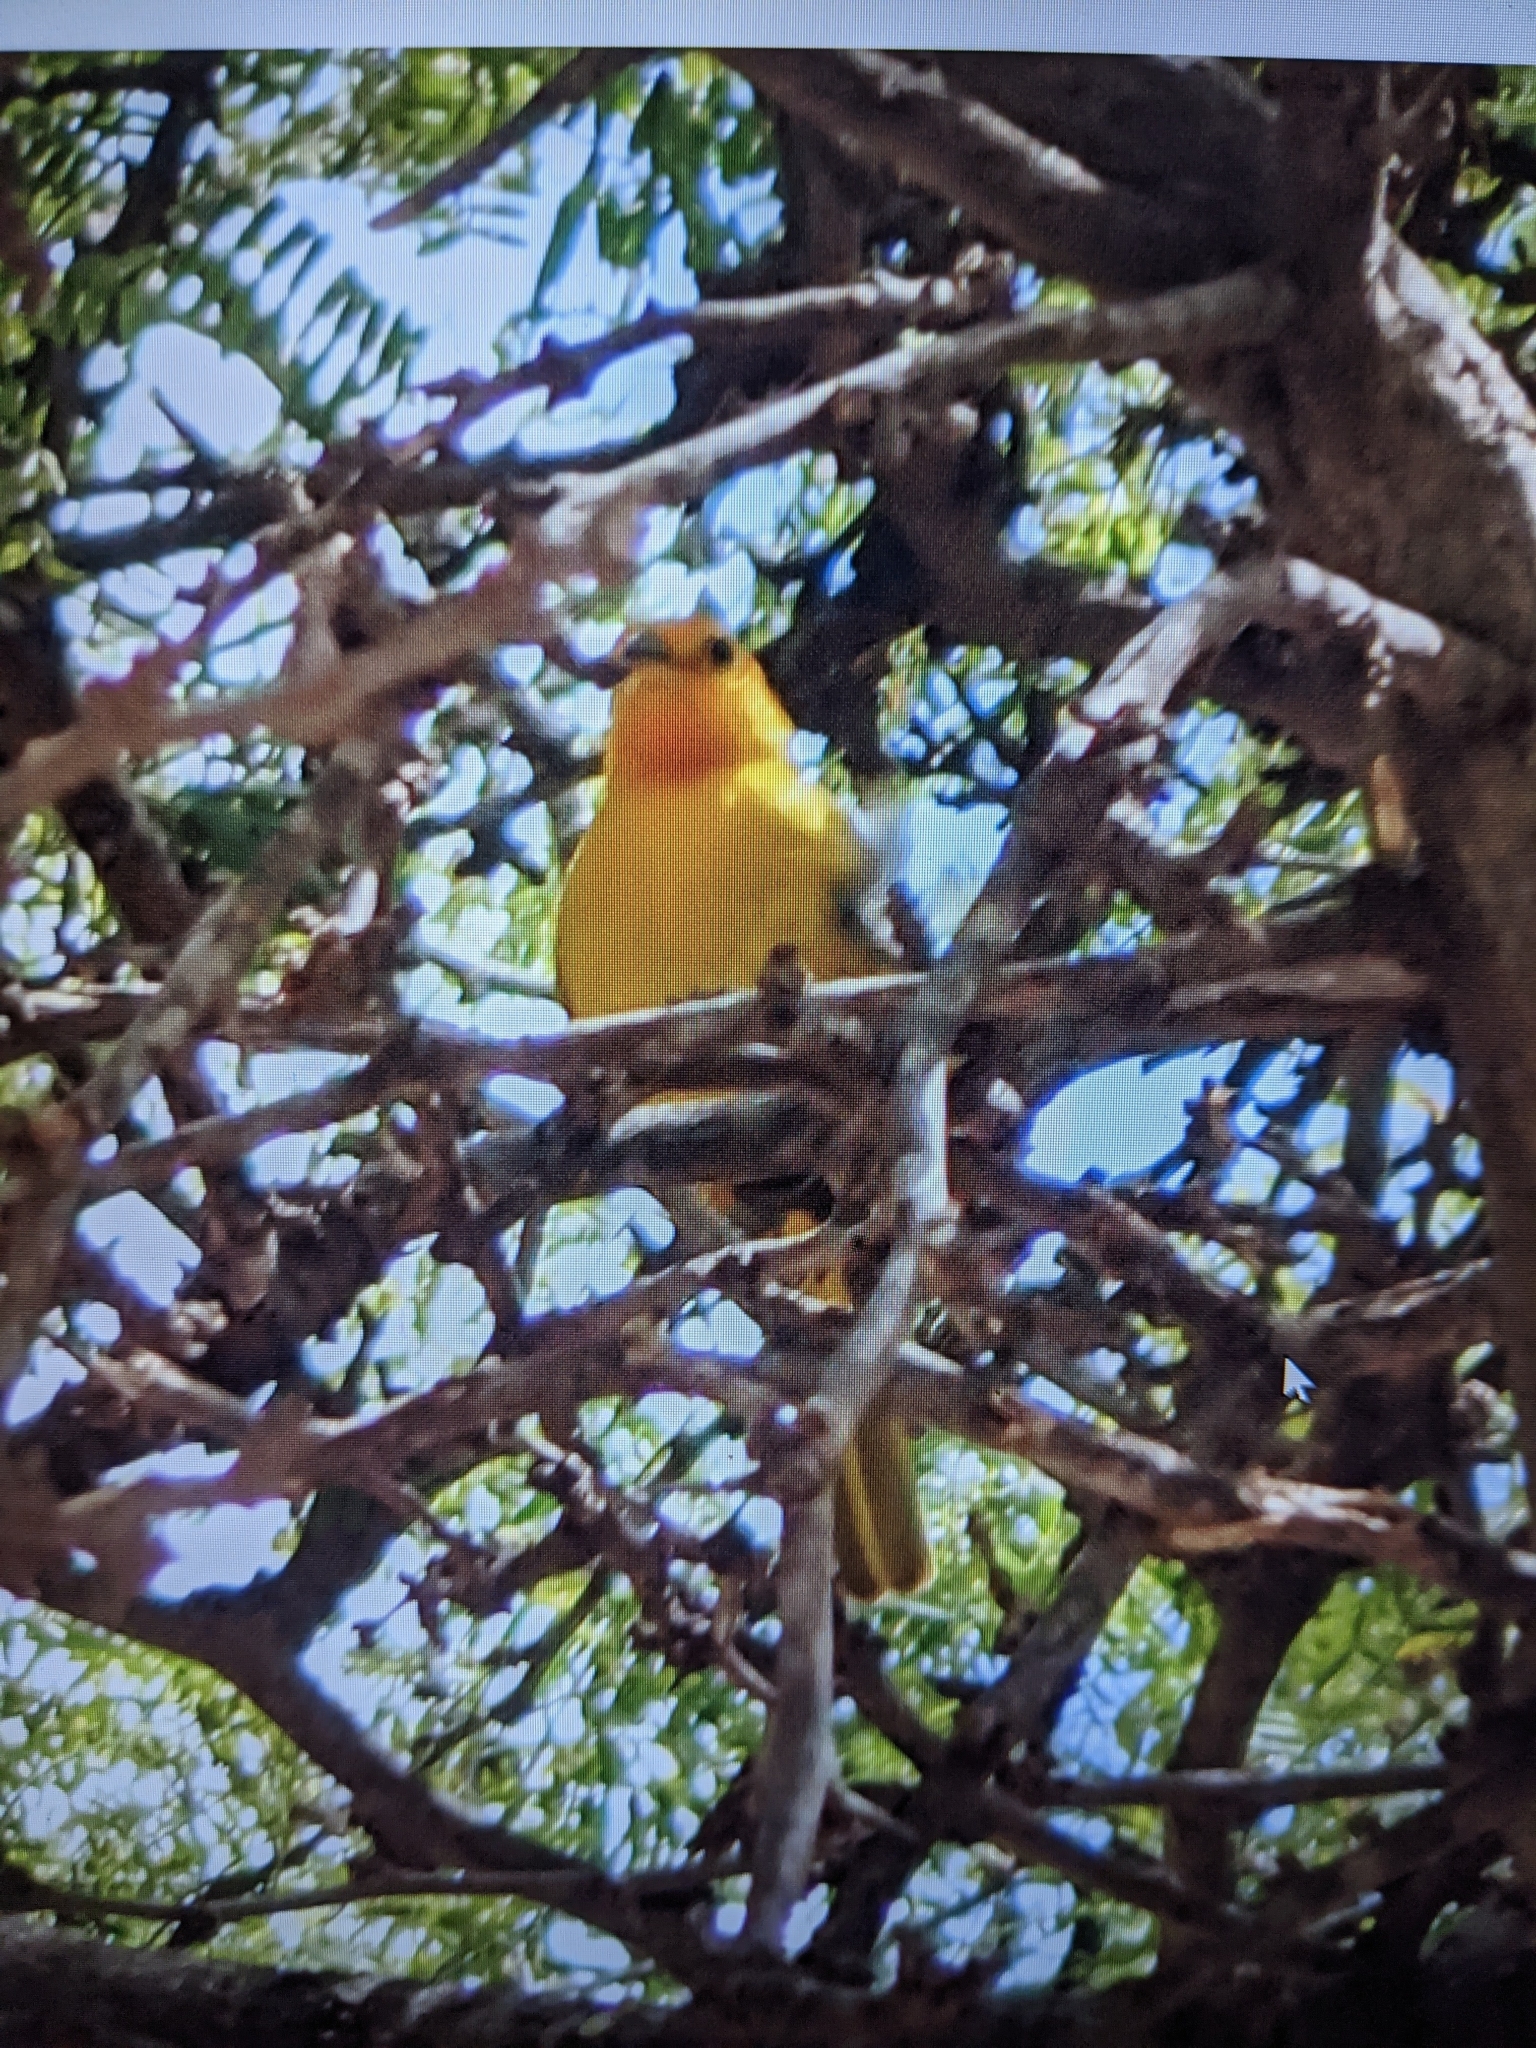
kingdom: Animalia
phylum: Chordata
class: Aves
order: Passeriformes
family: Thraupidae
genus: Sicalis
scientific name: Sicalis flaveola
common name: Saffron finch
